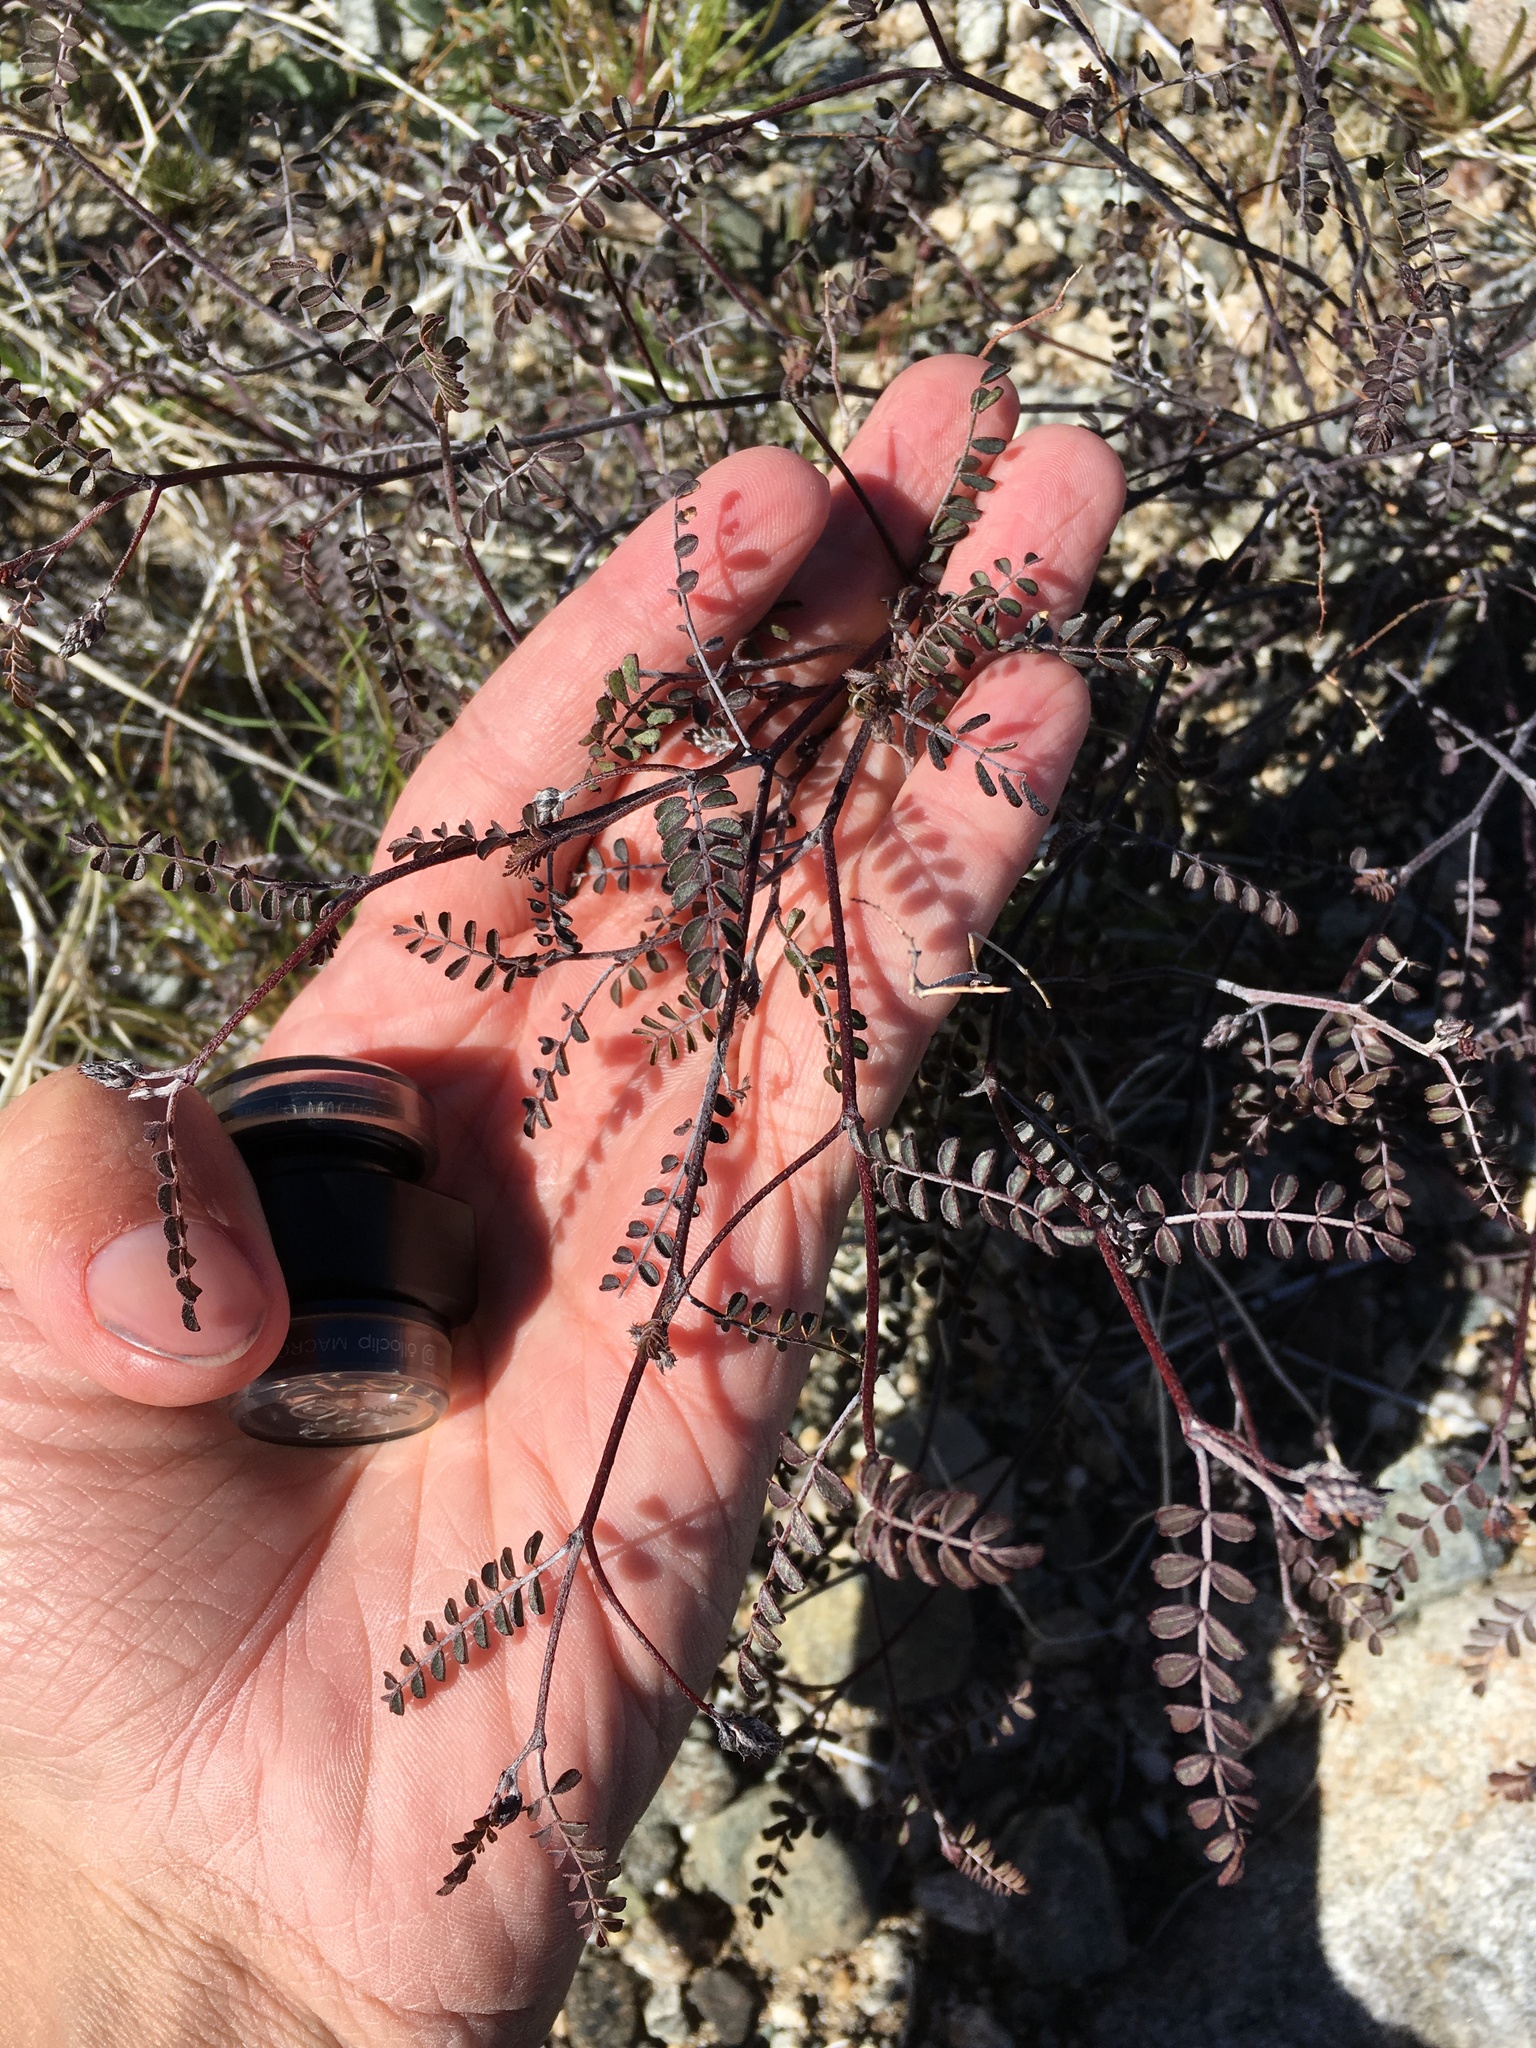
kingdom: Plantae
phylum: Tracheophyta
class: Magnoliopsida
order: Fabales
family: Fabaceae
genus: Marina
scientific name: Marina parryi
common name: Parry's marina
